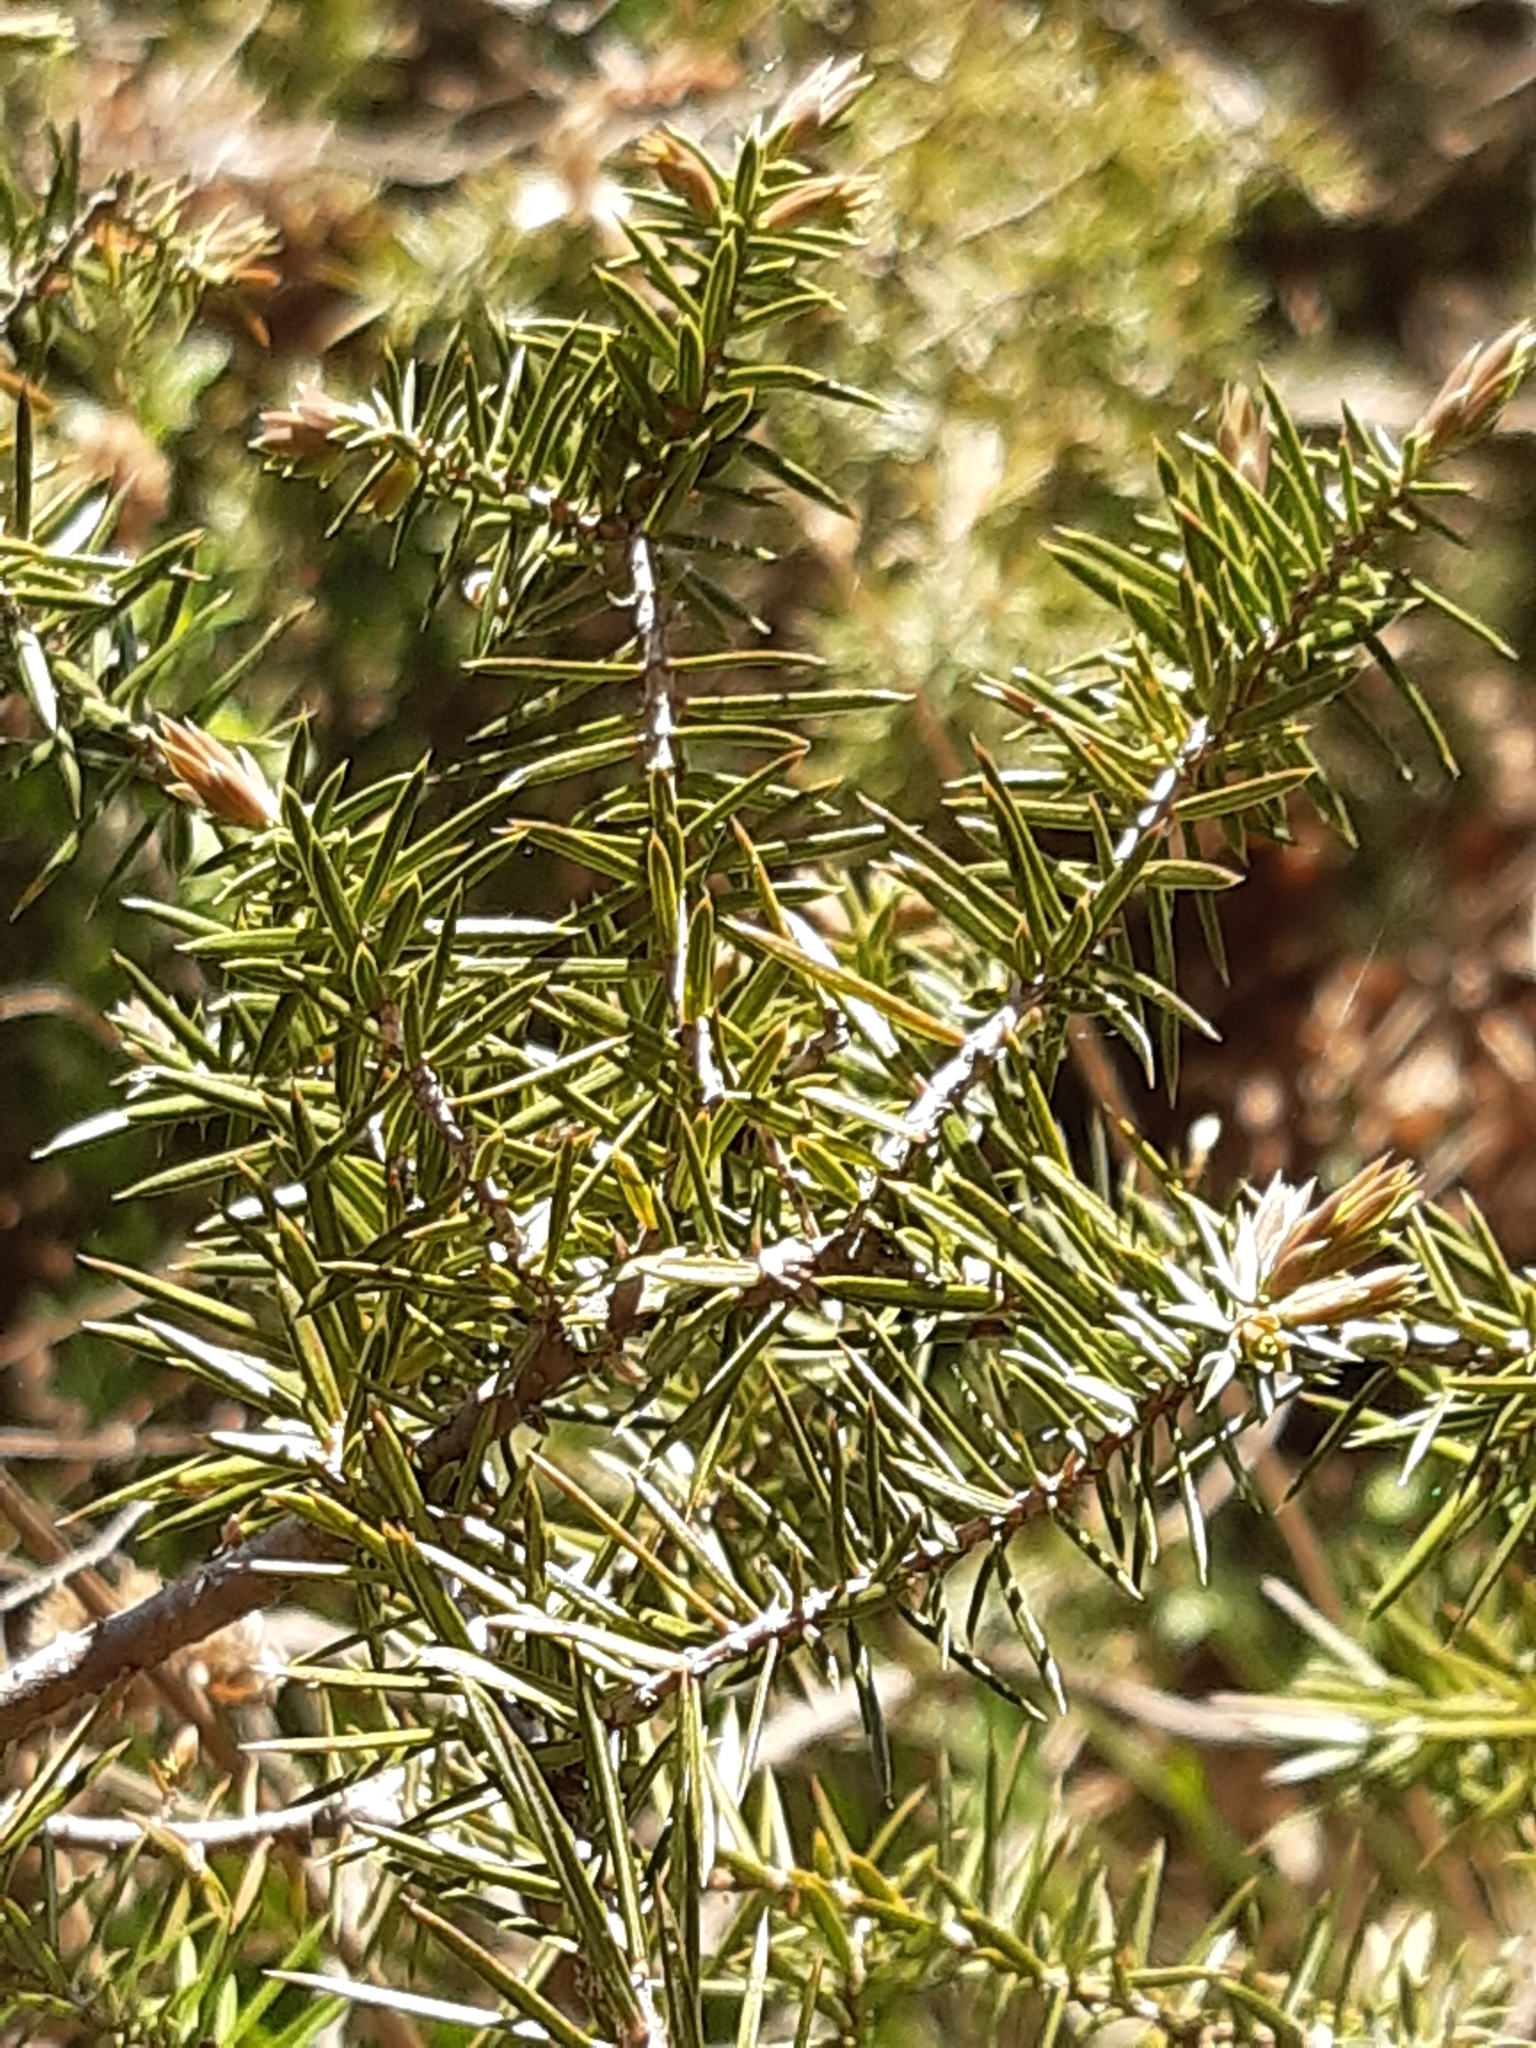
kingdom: Plantae
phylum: Tracheophyta
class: Pinopsida
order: Pinales
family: Cupressaceae
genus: Juniperus
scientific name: Juniperus communis
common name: Common juniper
